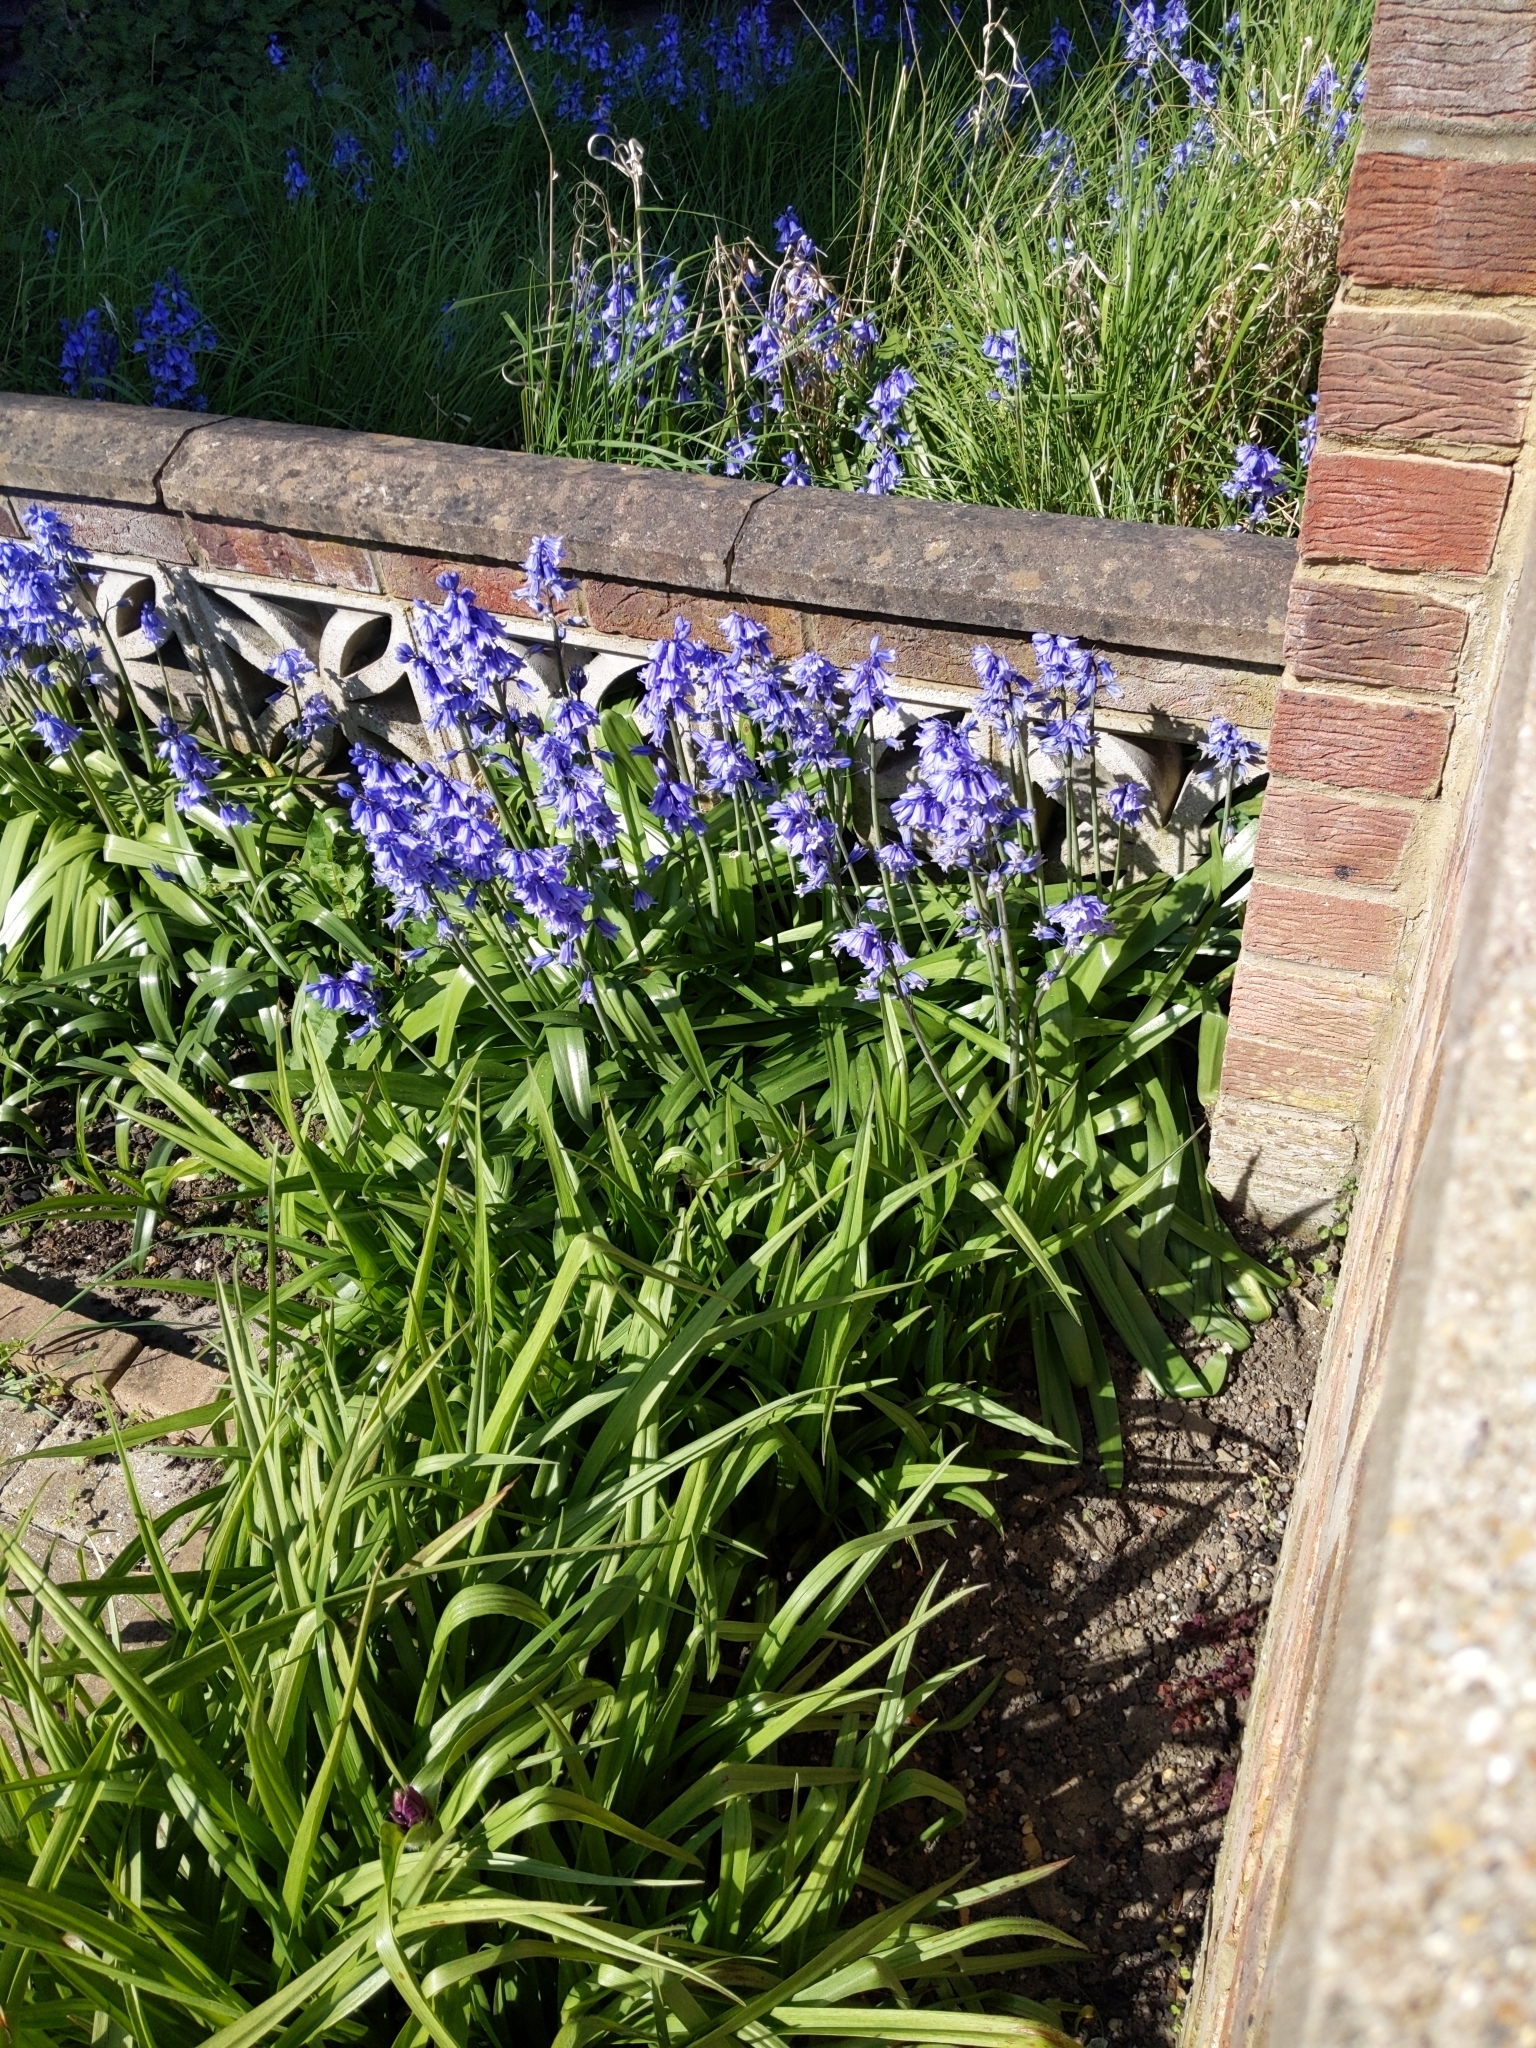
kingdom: Plantae
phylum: Tracheophyta
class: Liliopsida
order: Asparagales
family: Asparagaceae
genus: Hyacinthoides
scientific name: Hyacinthoides massartiana
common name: Hyacinthoides
